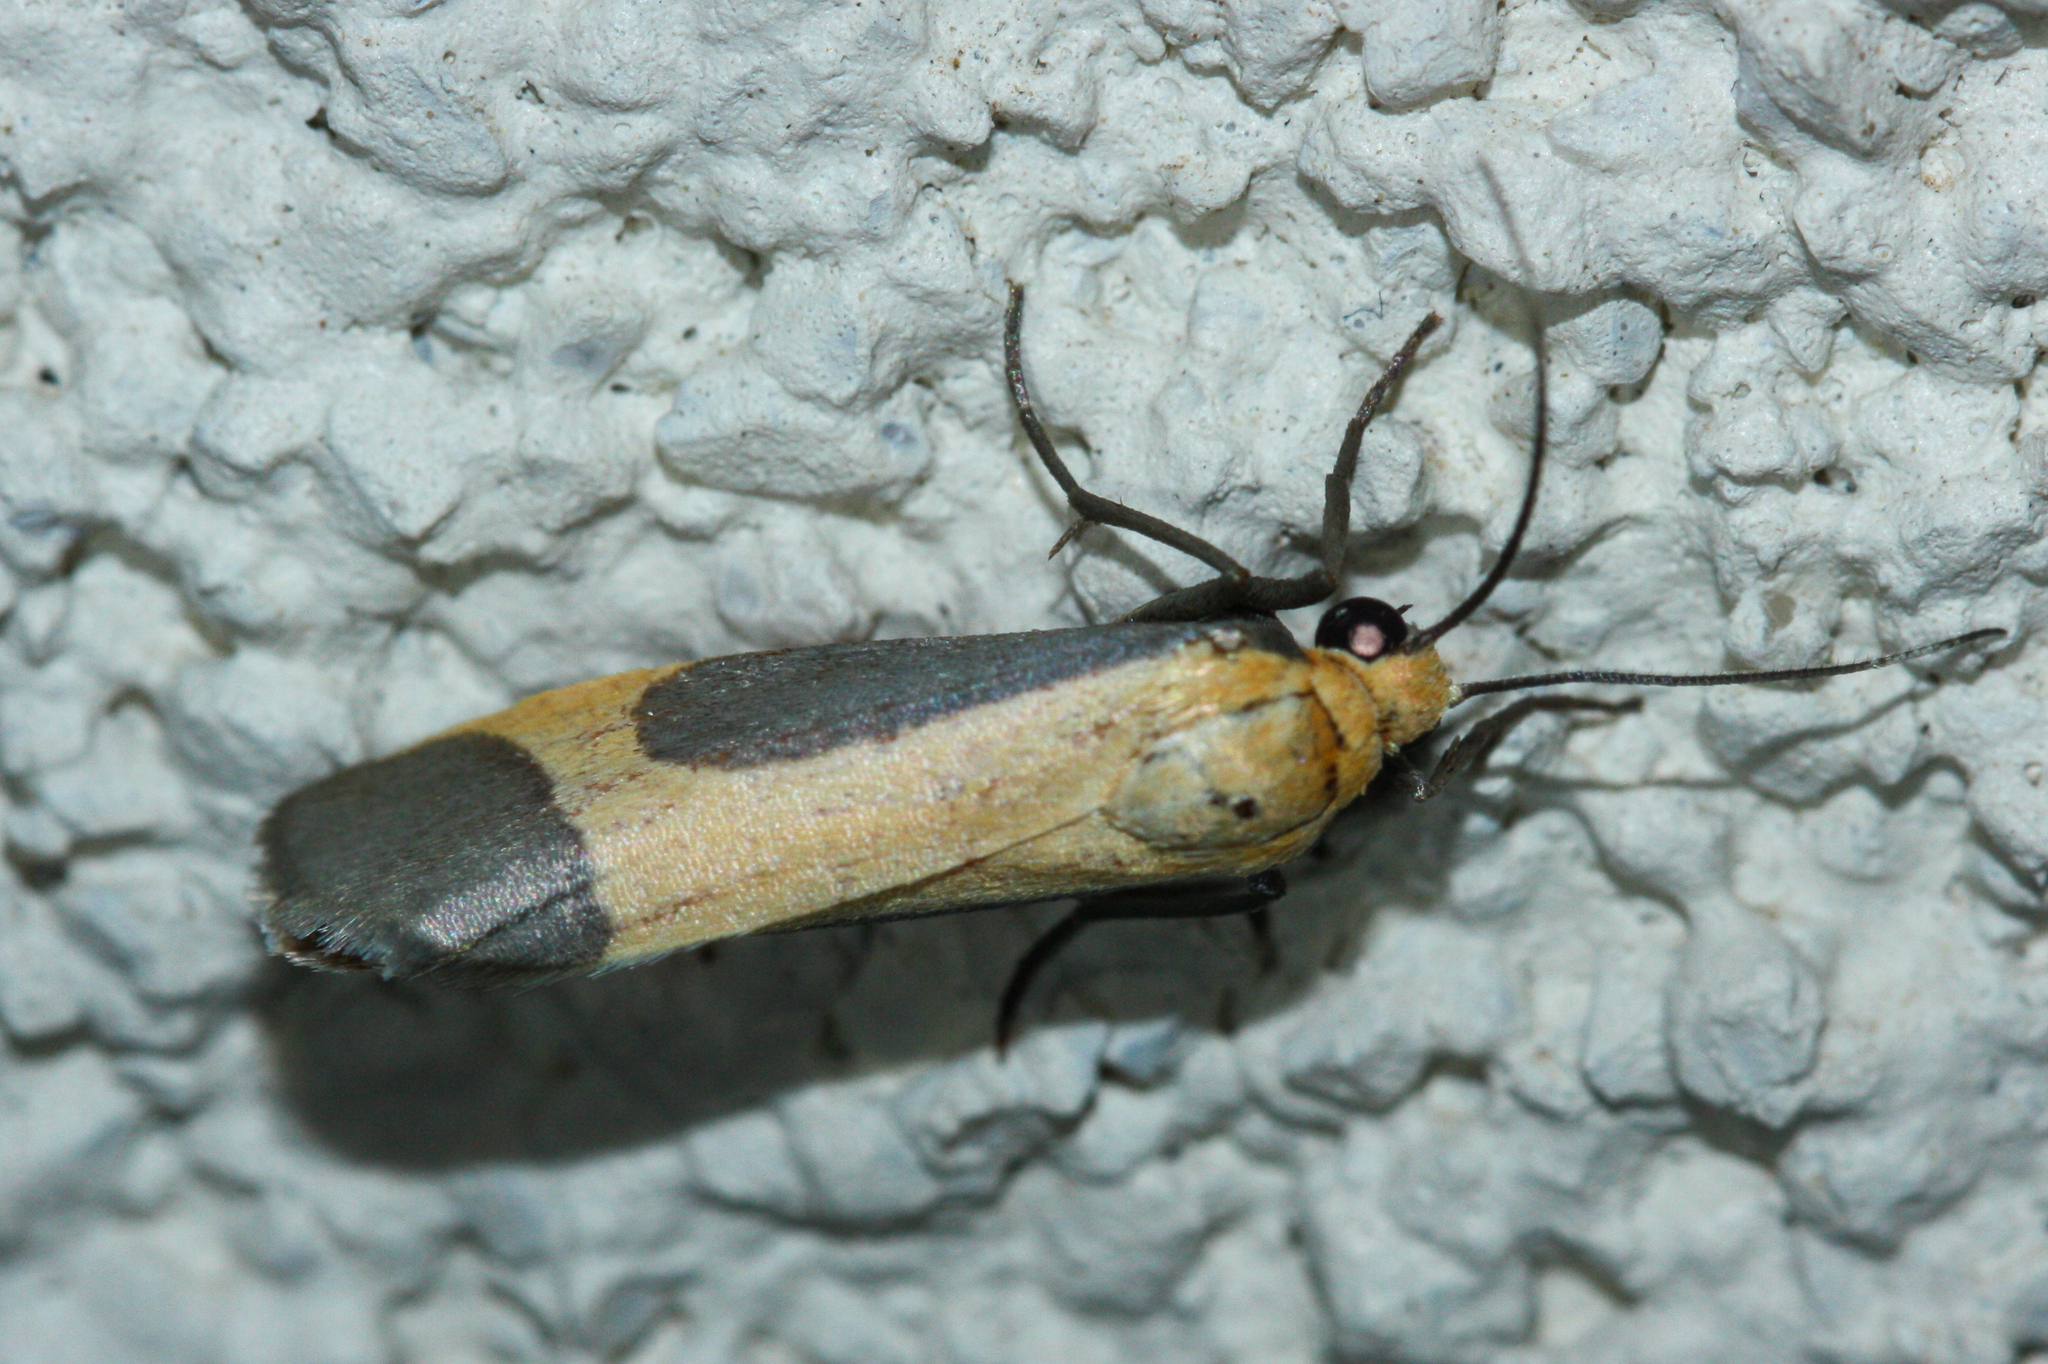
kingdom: Animalia
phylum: Arthropoda
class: Insecta
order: Lepidoptera
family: Erebidae
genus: Cisthene
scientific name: Cisthene angelus
